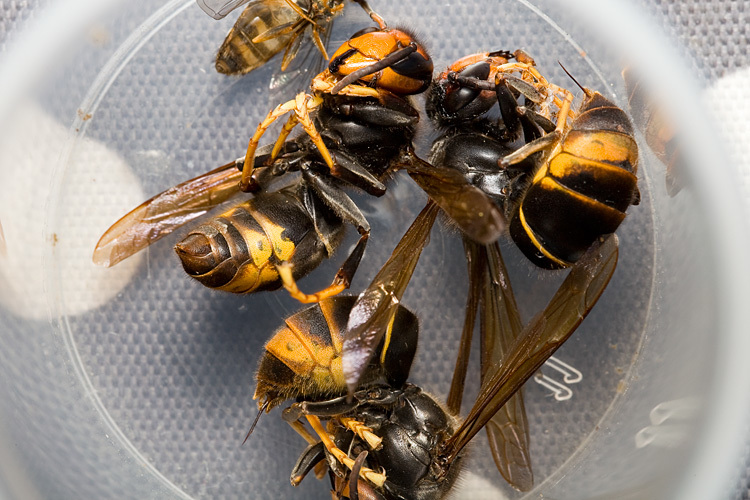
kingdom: Animalia
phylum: Arthropoda
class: Insecta
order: Hymenoptera
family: Vespidae
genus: Vespa
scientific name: Vespa velutina
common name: Asian hornet
